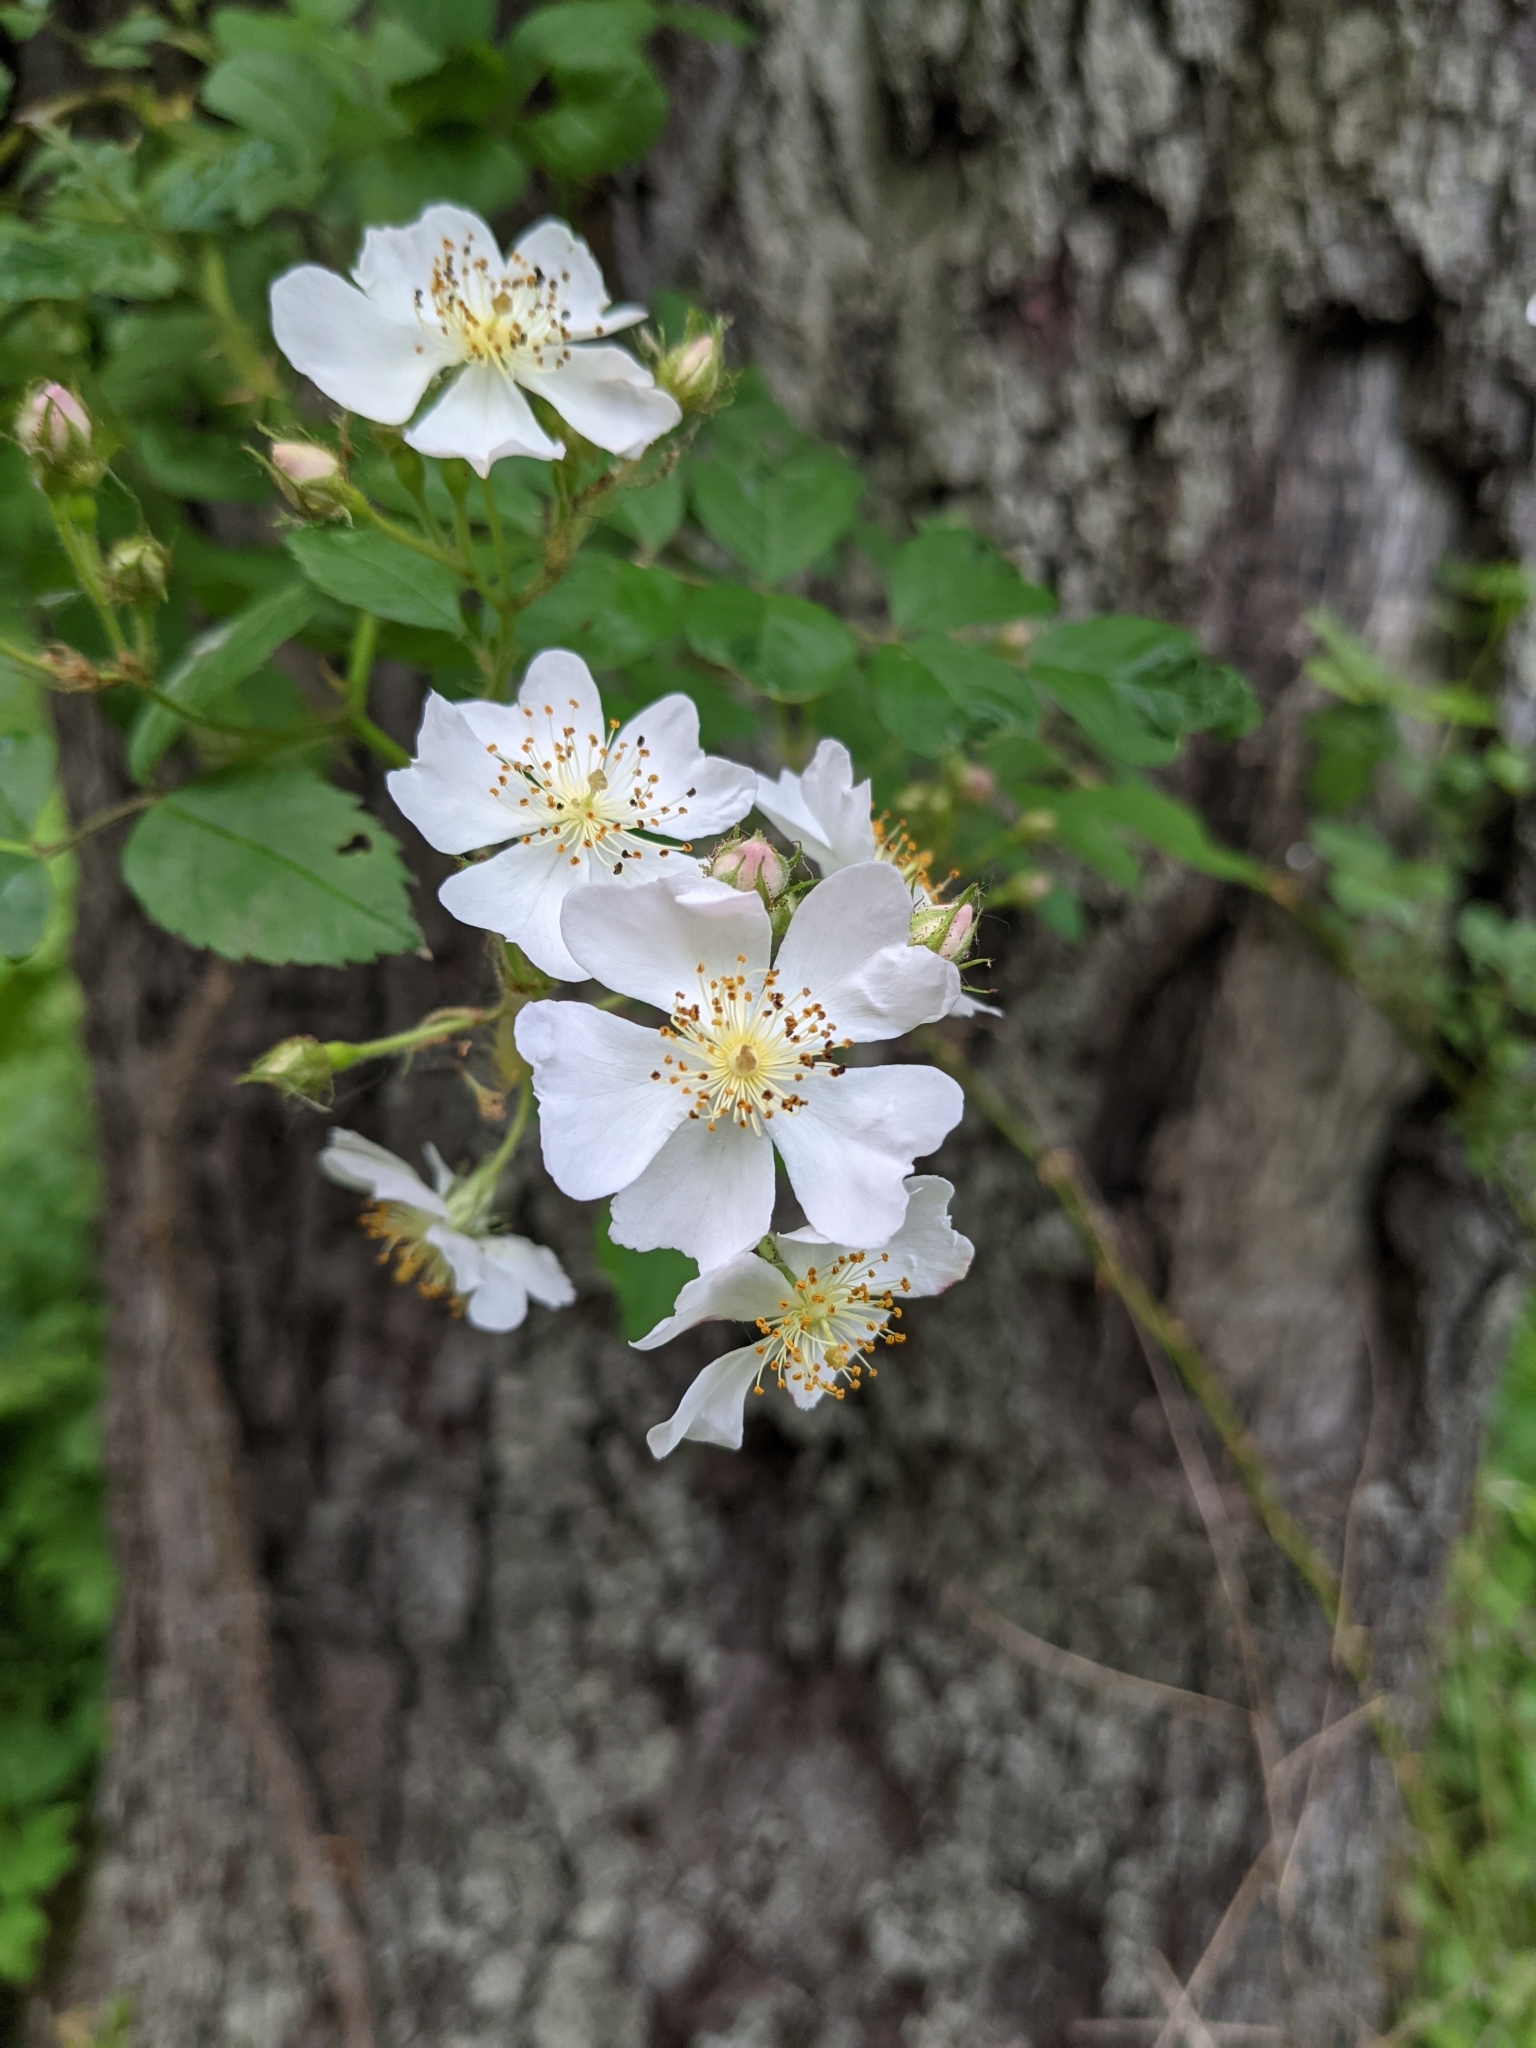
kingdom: Plantae
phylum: Tracheophyta
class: Magnoliopsida
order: Rosales
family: Rosaceae
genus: Rosa
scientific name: Rosa multiflora
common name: Multiflora rose
